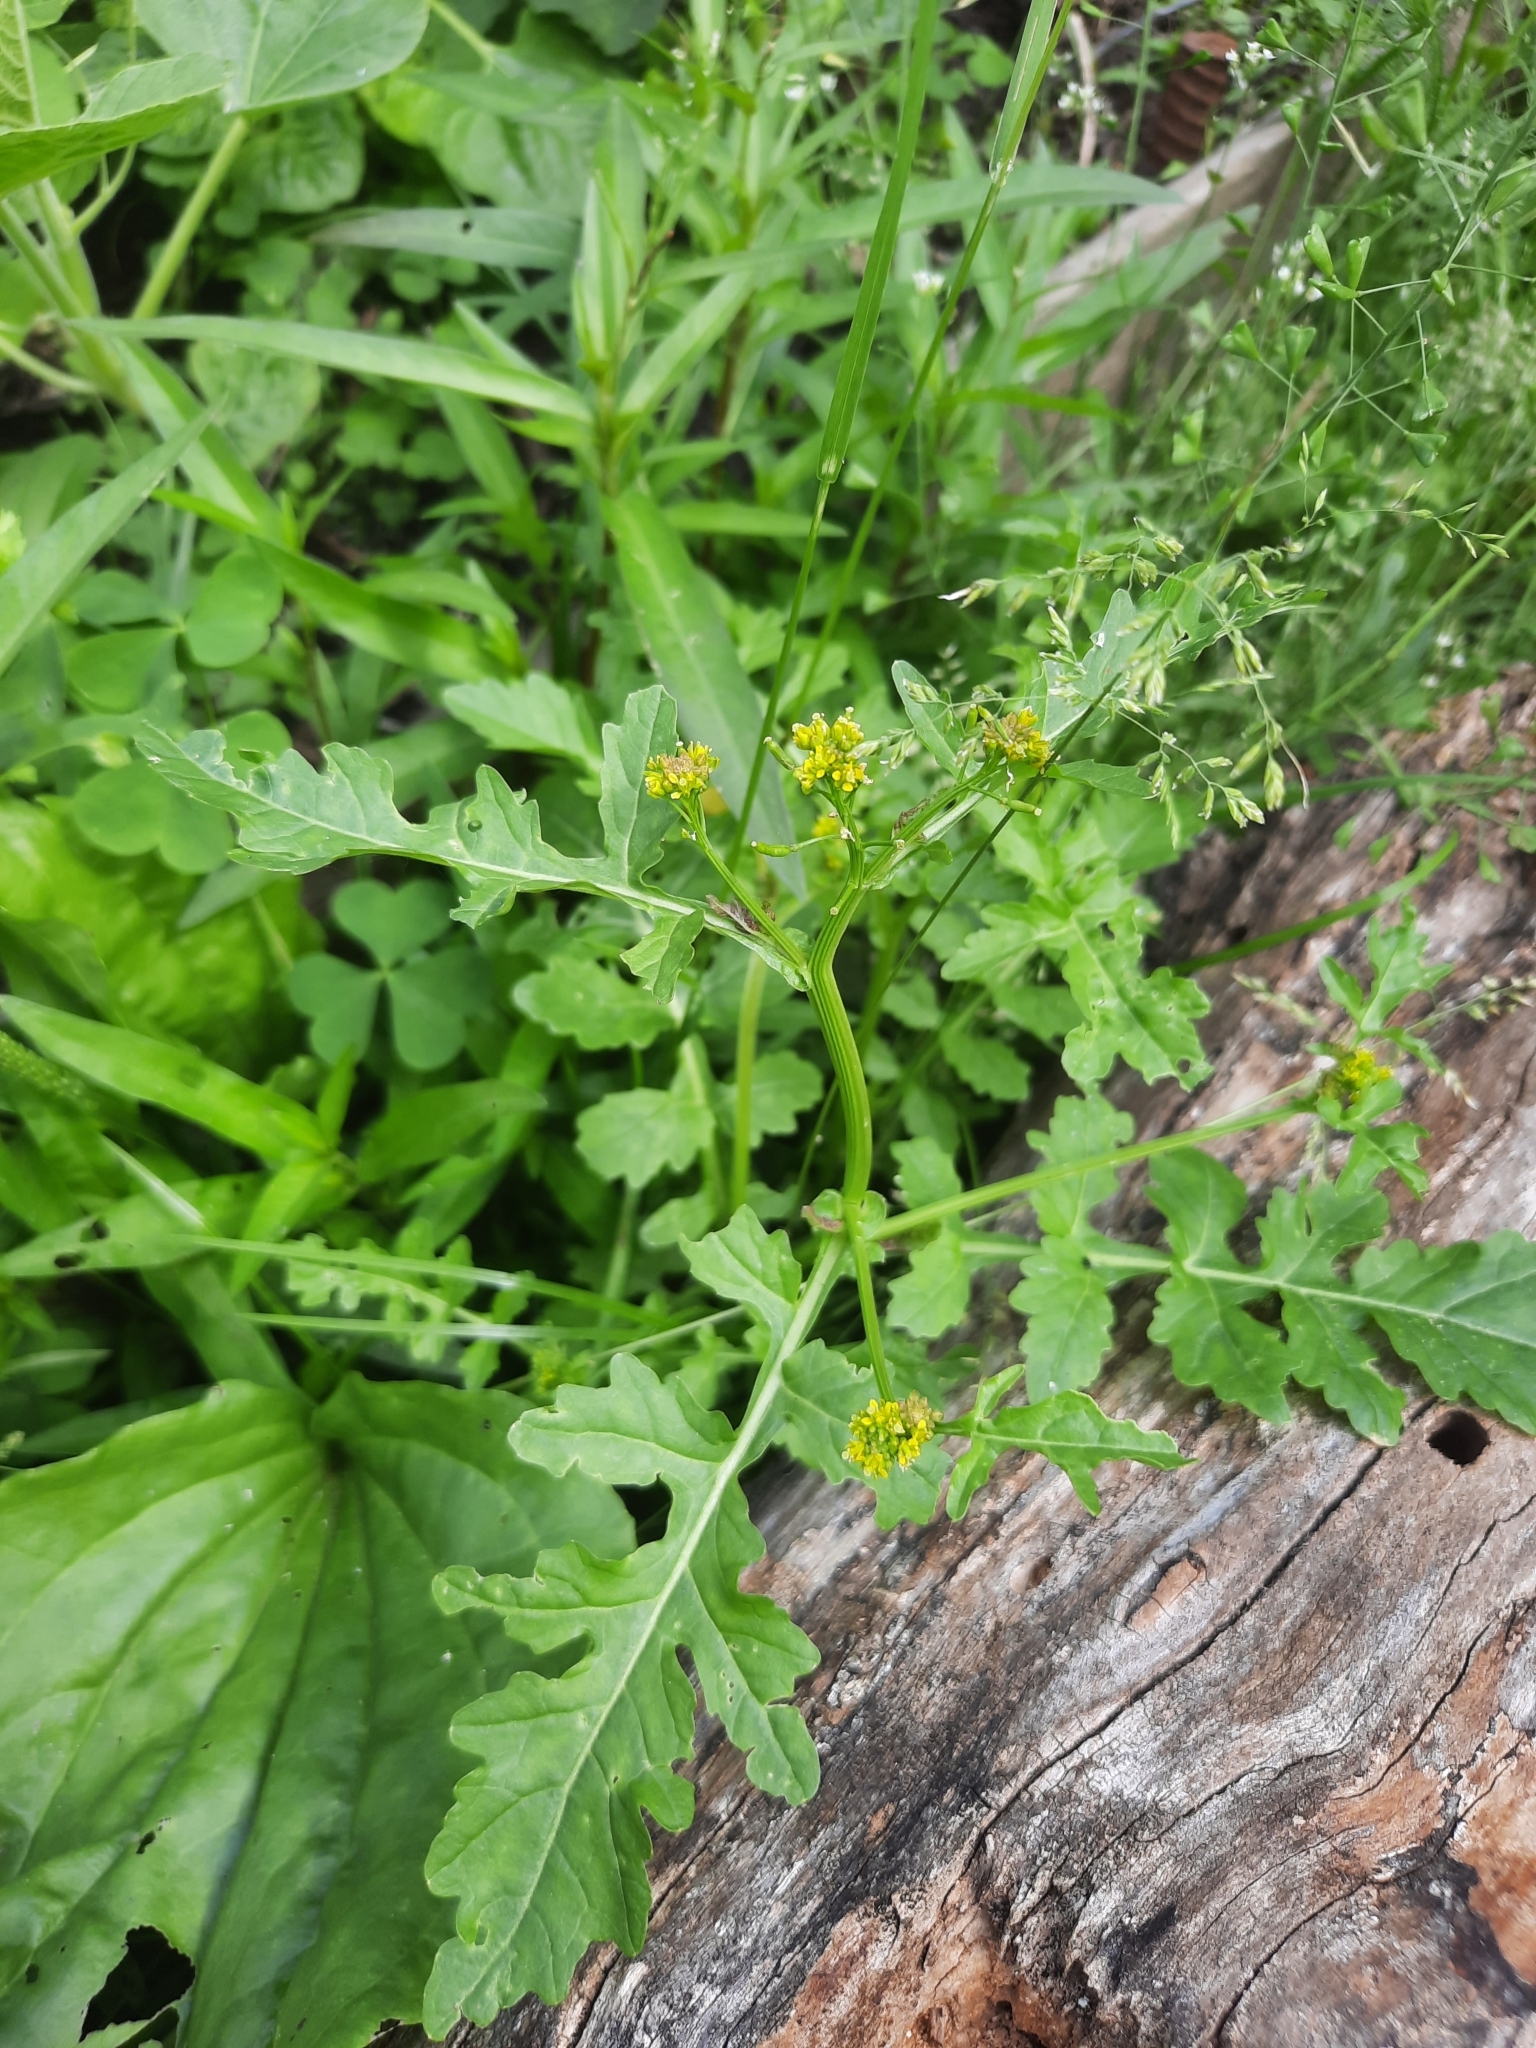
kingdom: Plantae
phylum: Tracheophyta
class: Magnoliopsida
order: Brassicales
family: Brassicaceae
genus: Rorippa
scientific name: Rorippa palustris
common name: Marsh yellow-cress
